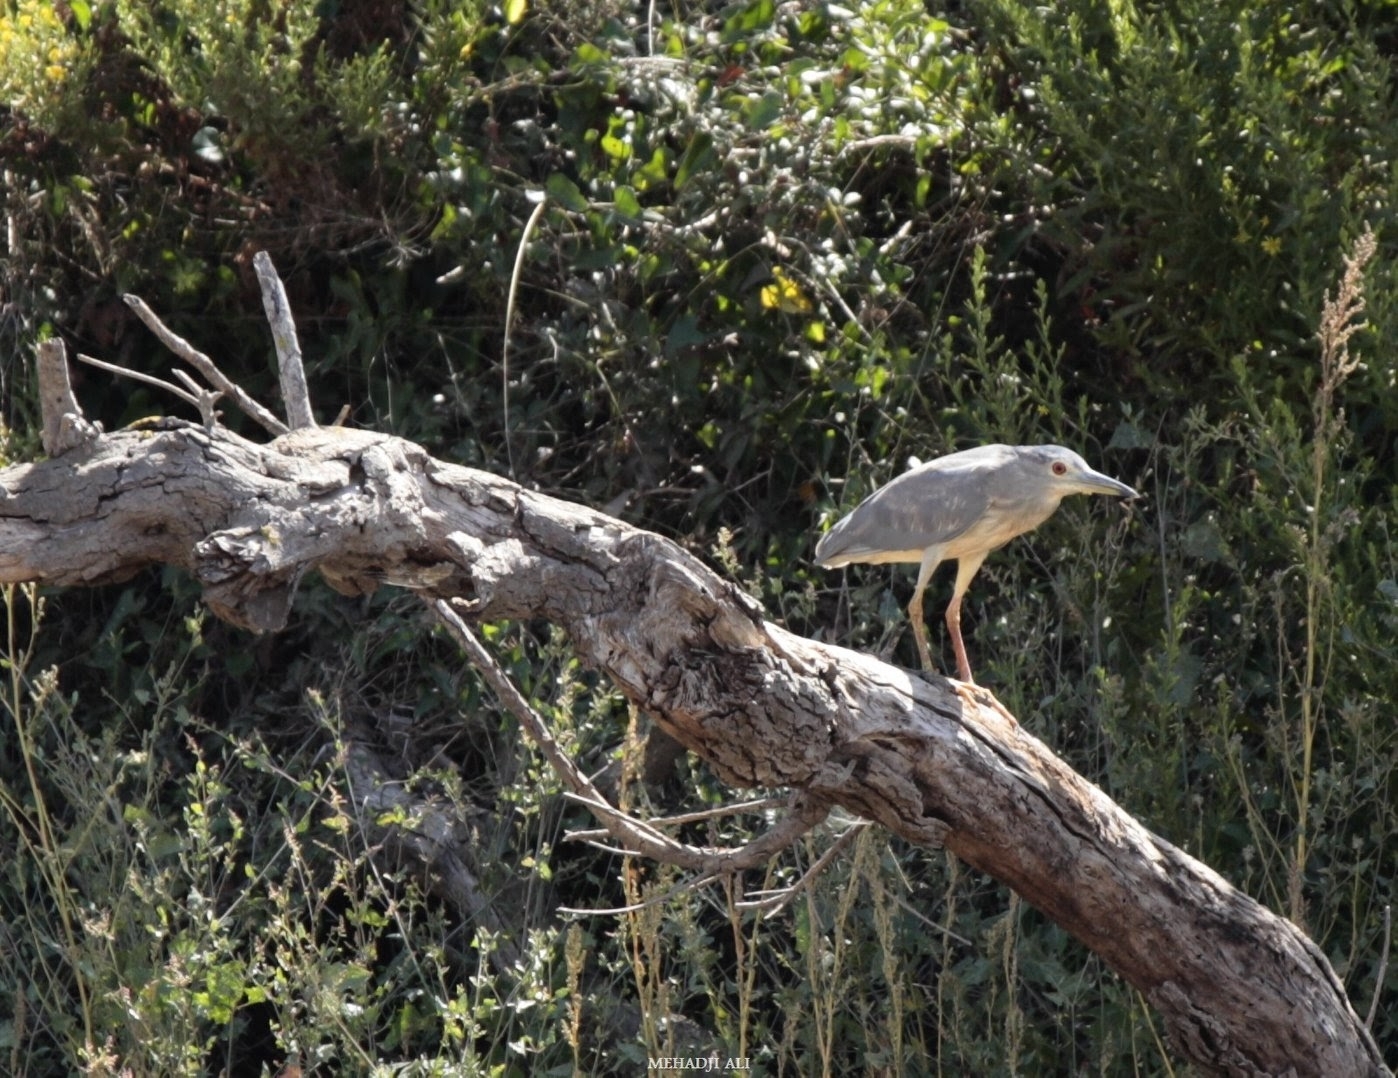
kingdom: Animalia
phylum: Chordata
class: Aves
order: Pelecaniformes
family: Ardeidae
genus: Nycticorax
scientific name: Nycticorax nycticorax
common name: Black-crowned night heron
